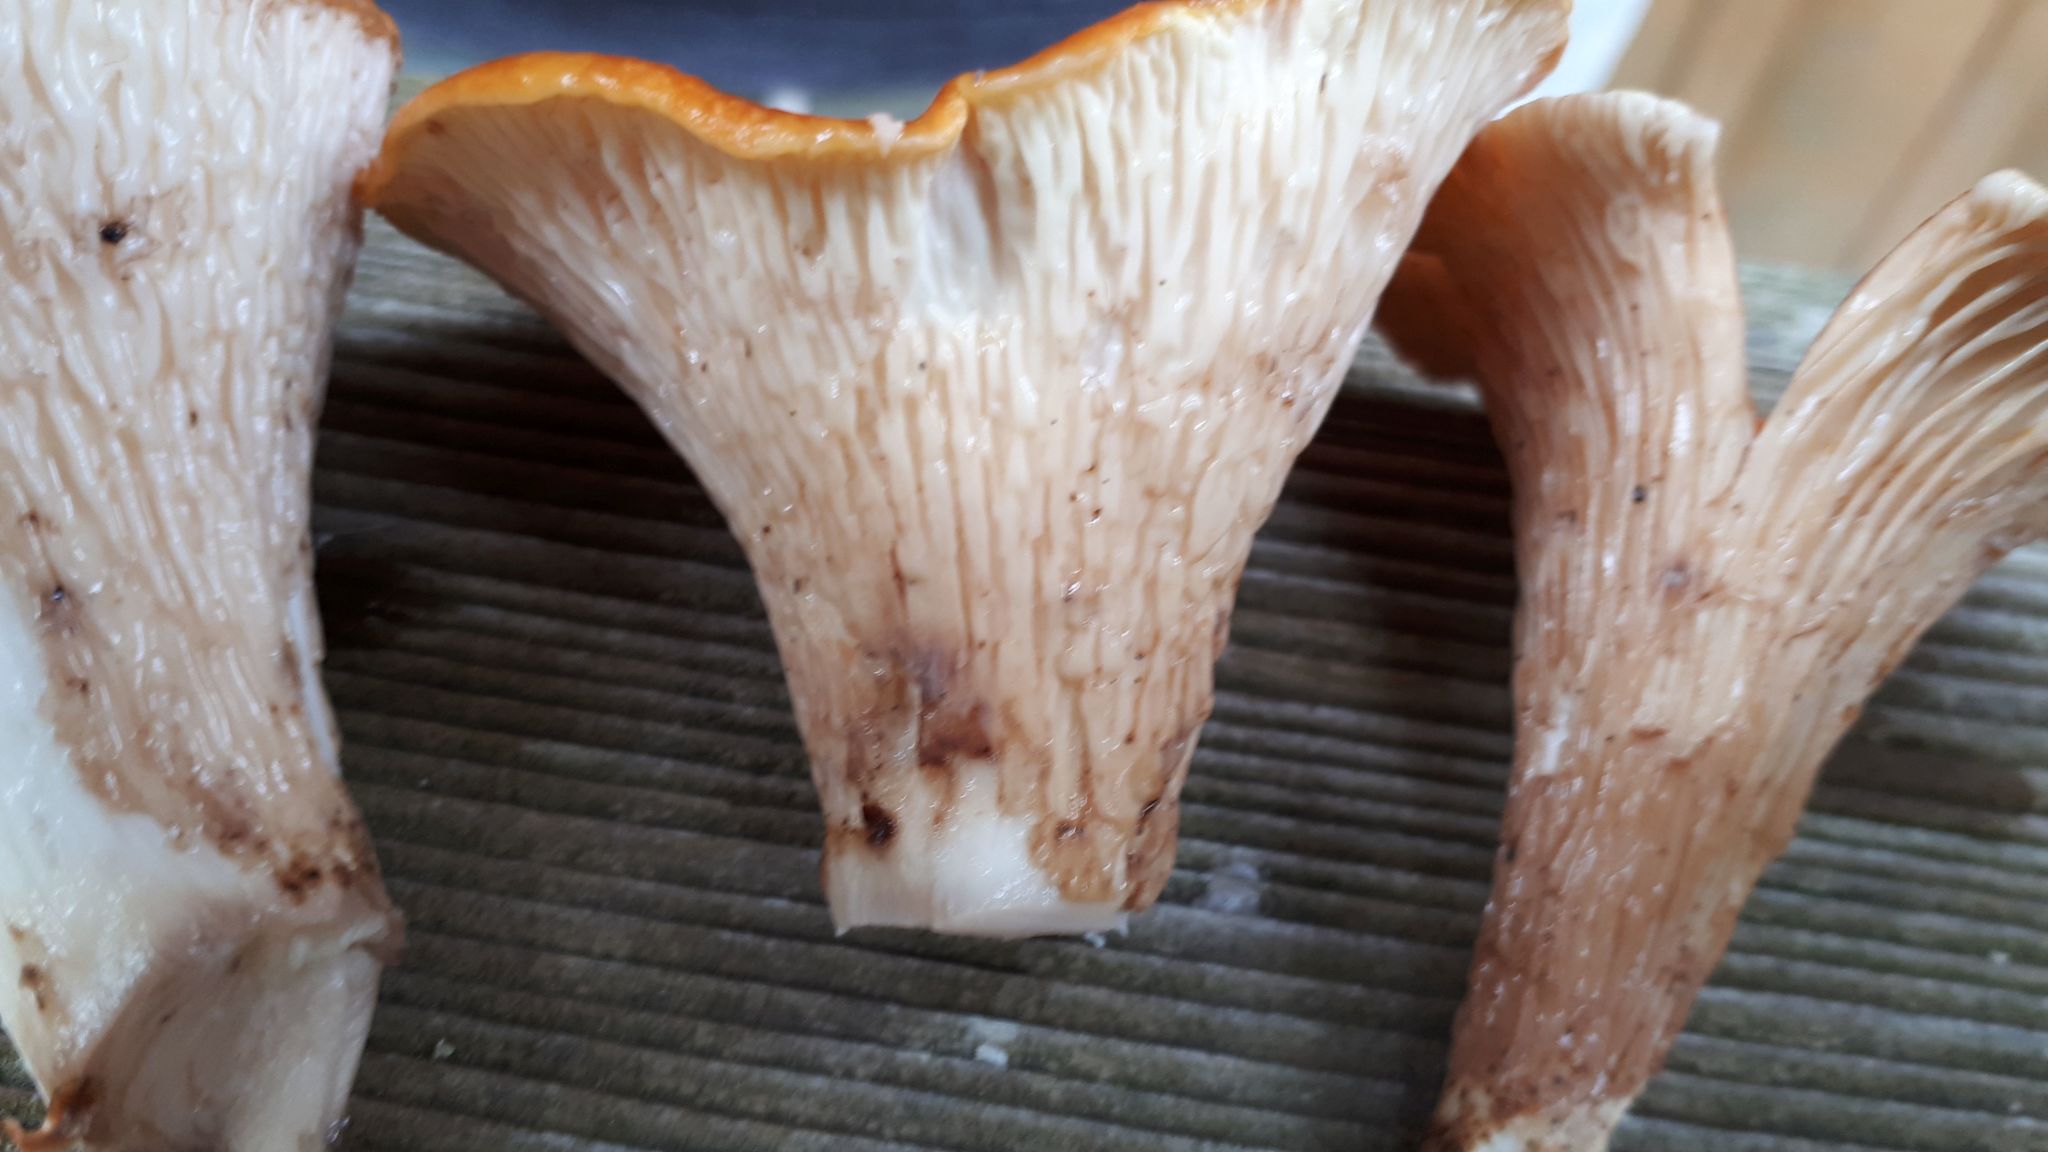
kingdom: Fungi
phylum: Basidiomycota
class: Agaricomycetes
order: Gomphales
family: Gomphaceae
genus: Turbinellus
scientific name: Turbinellus floccosus
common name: Scaly chanterelle
